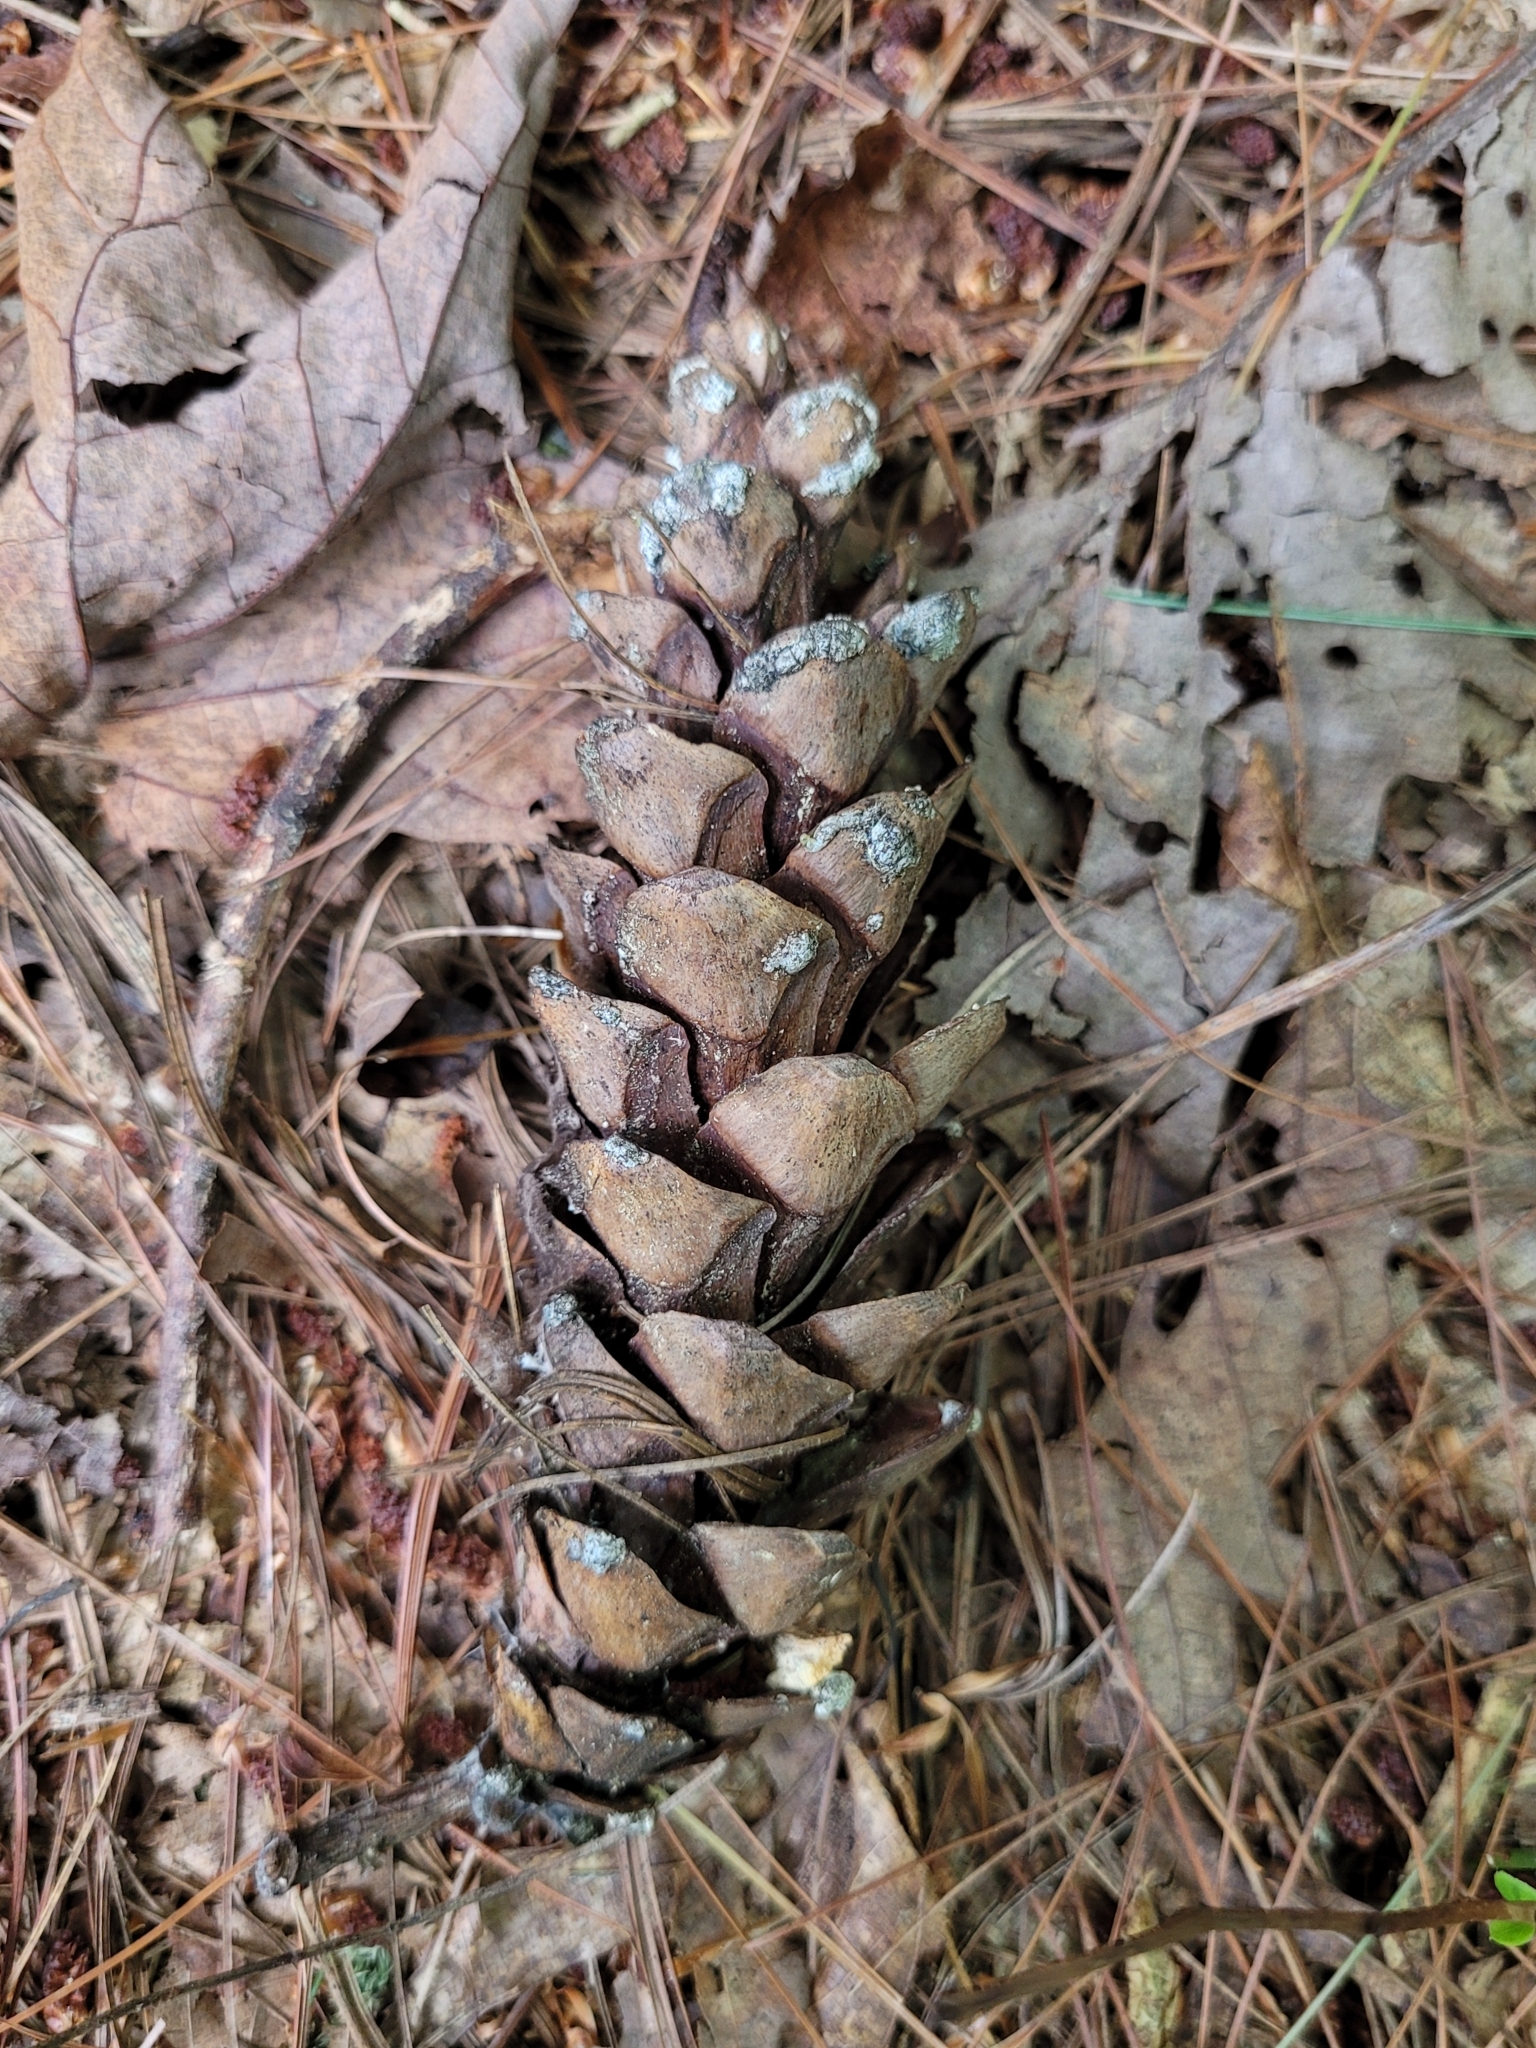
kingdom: Plantae
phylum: Tracheophyta
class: Pinopsida
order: Pinales
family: Pinaceae
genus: Pinus
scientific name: Pinus strobus
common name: Weymouth pine
